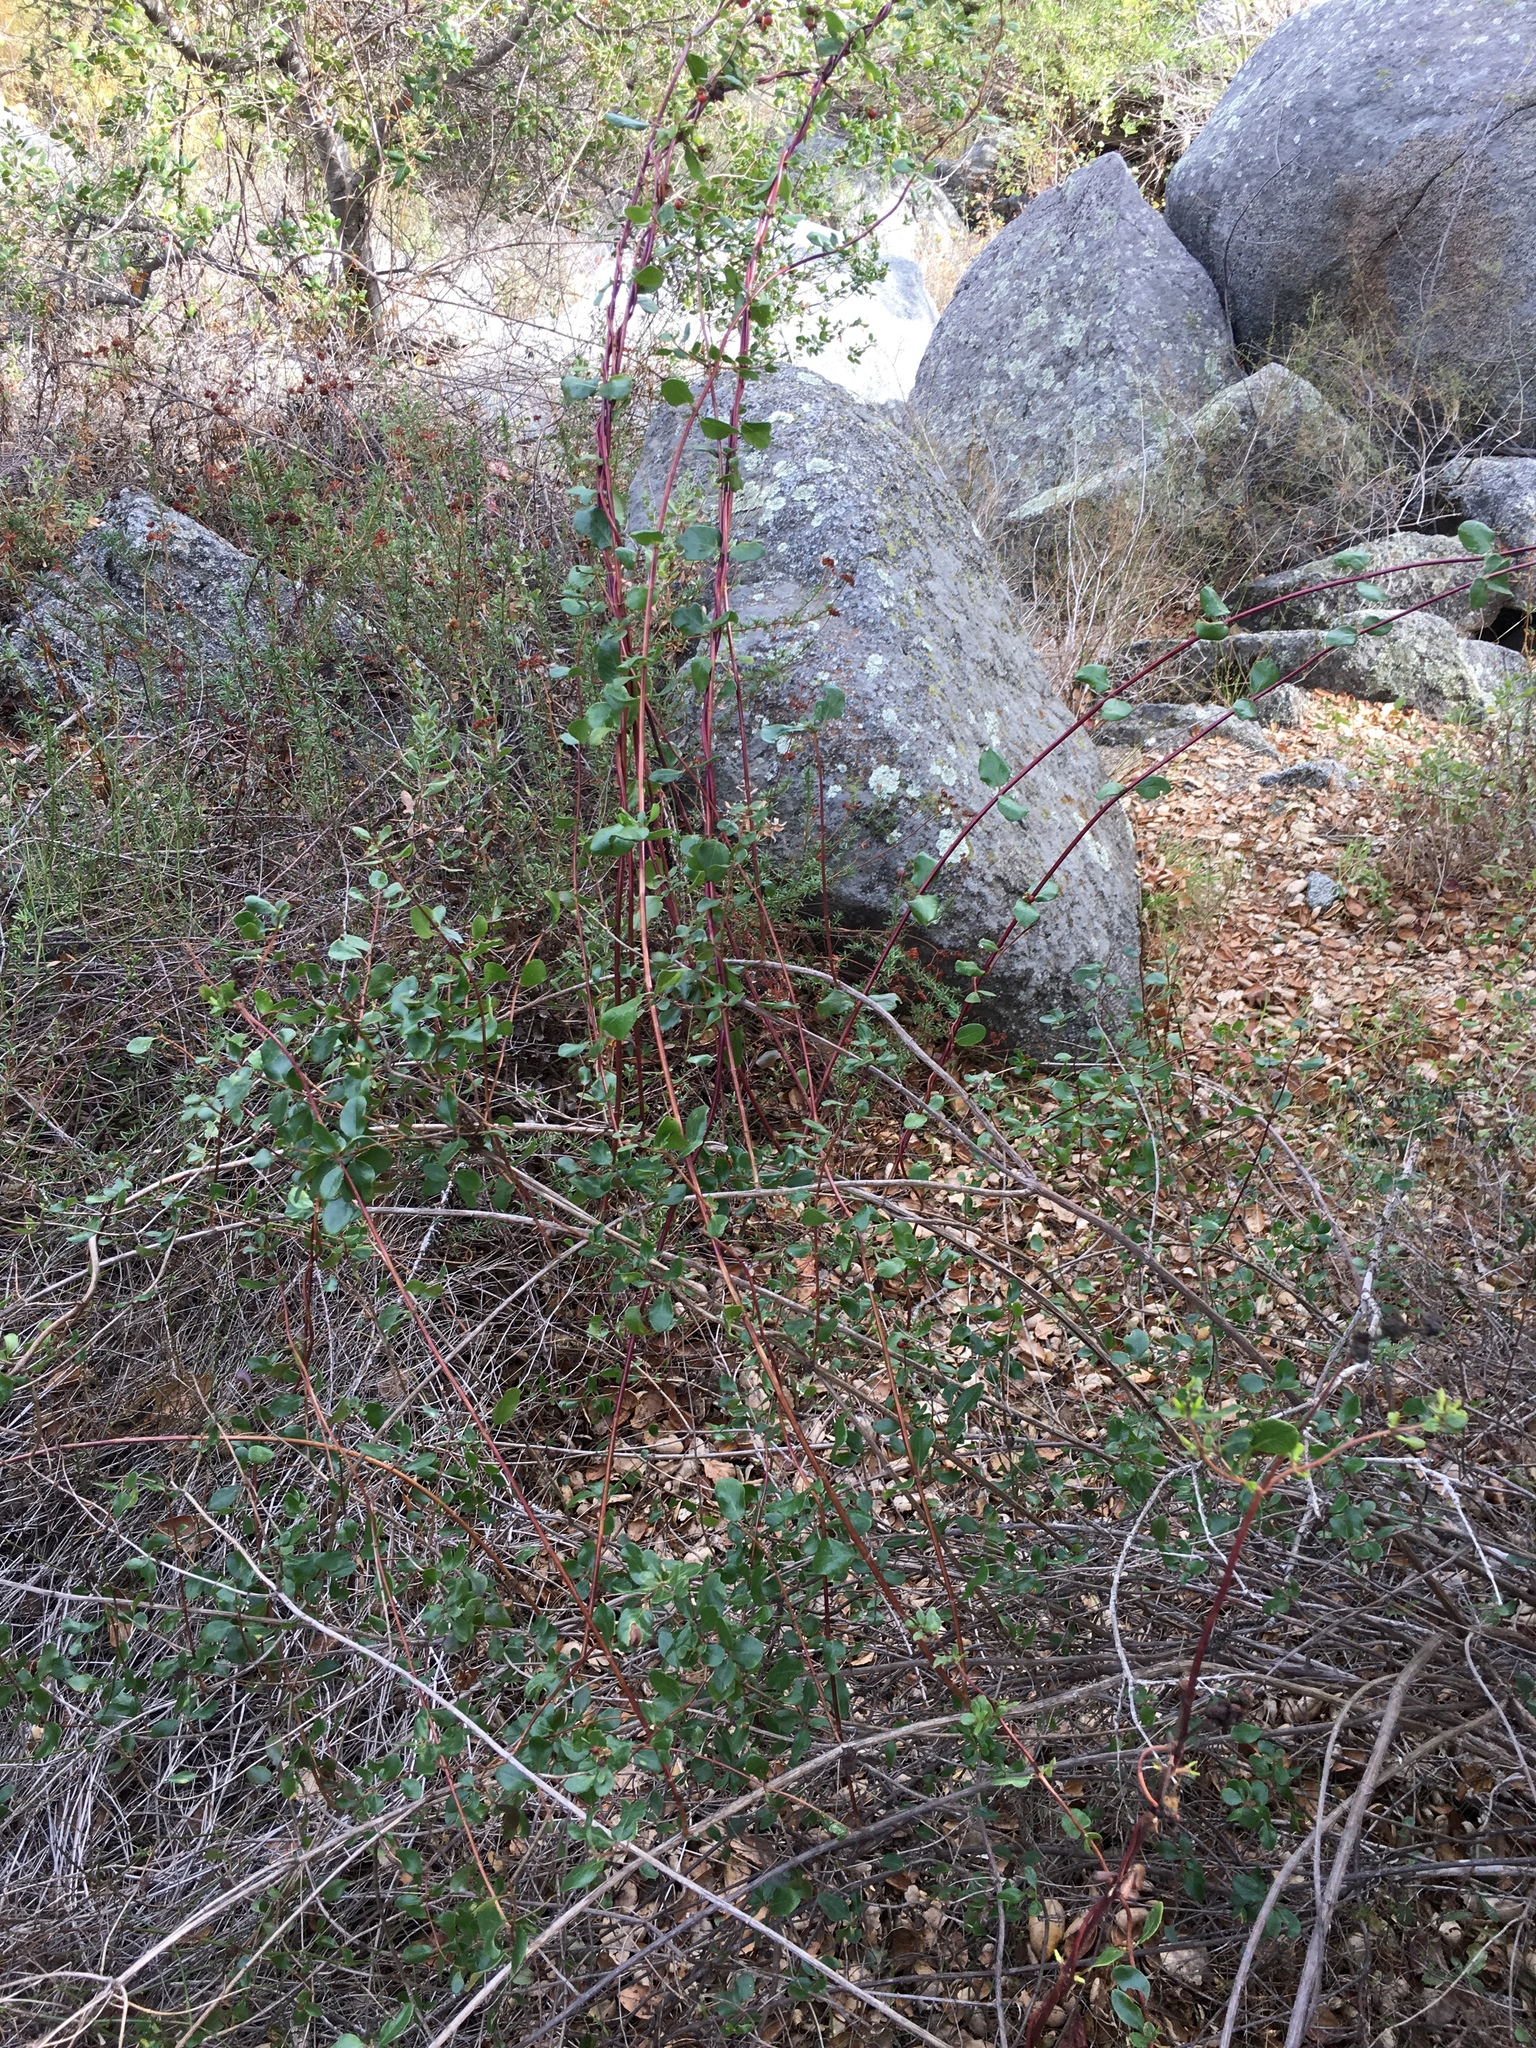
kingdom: Plantae
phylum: Tracheophyta
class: Magnoliopsida
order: Dipsacales
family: Caprifoliaceae
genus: Lonicera
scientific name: Lonicera subspicata
